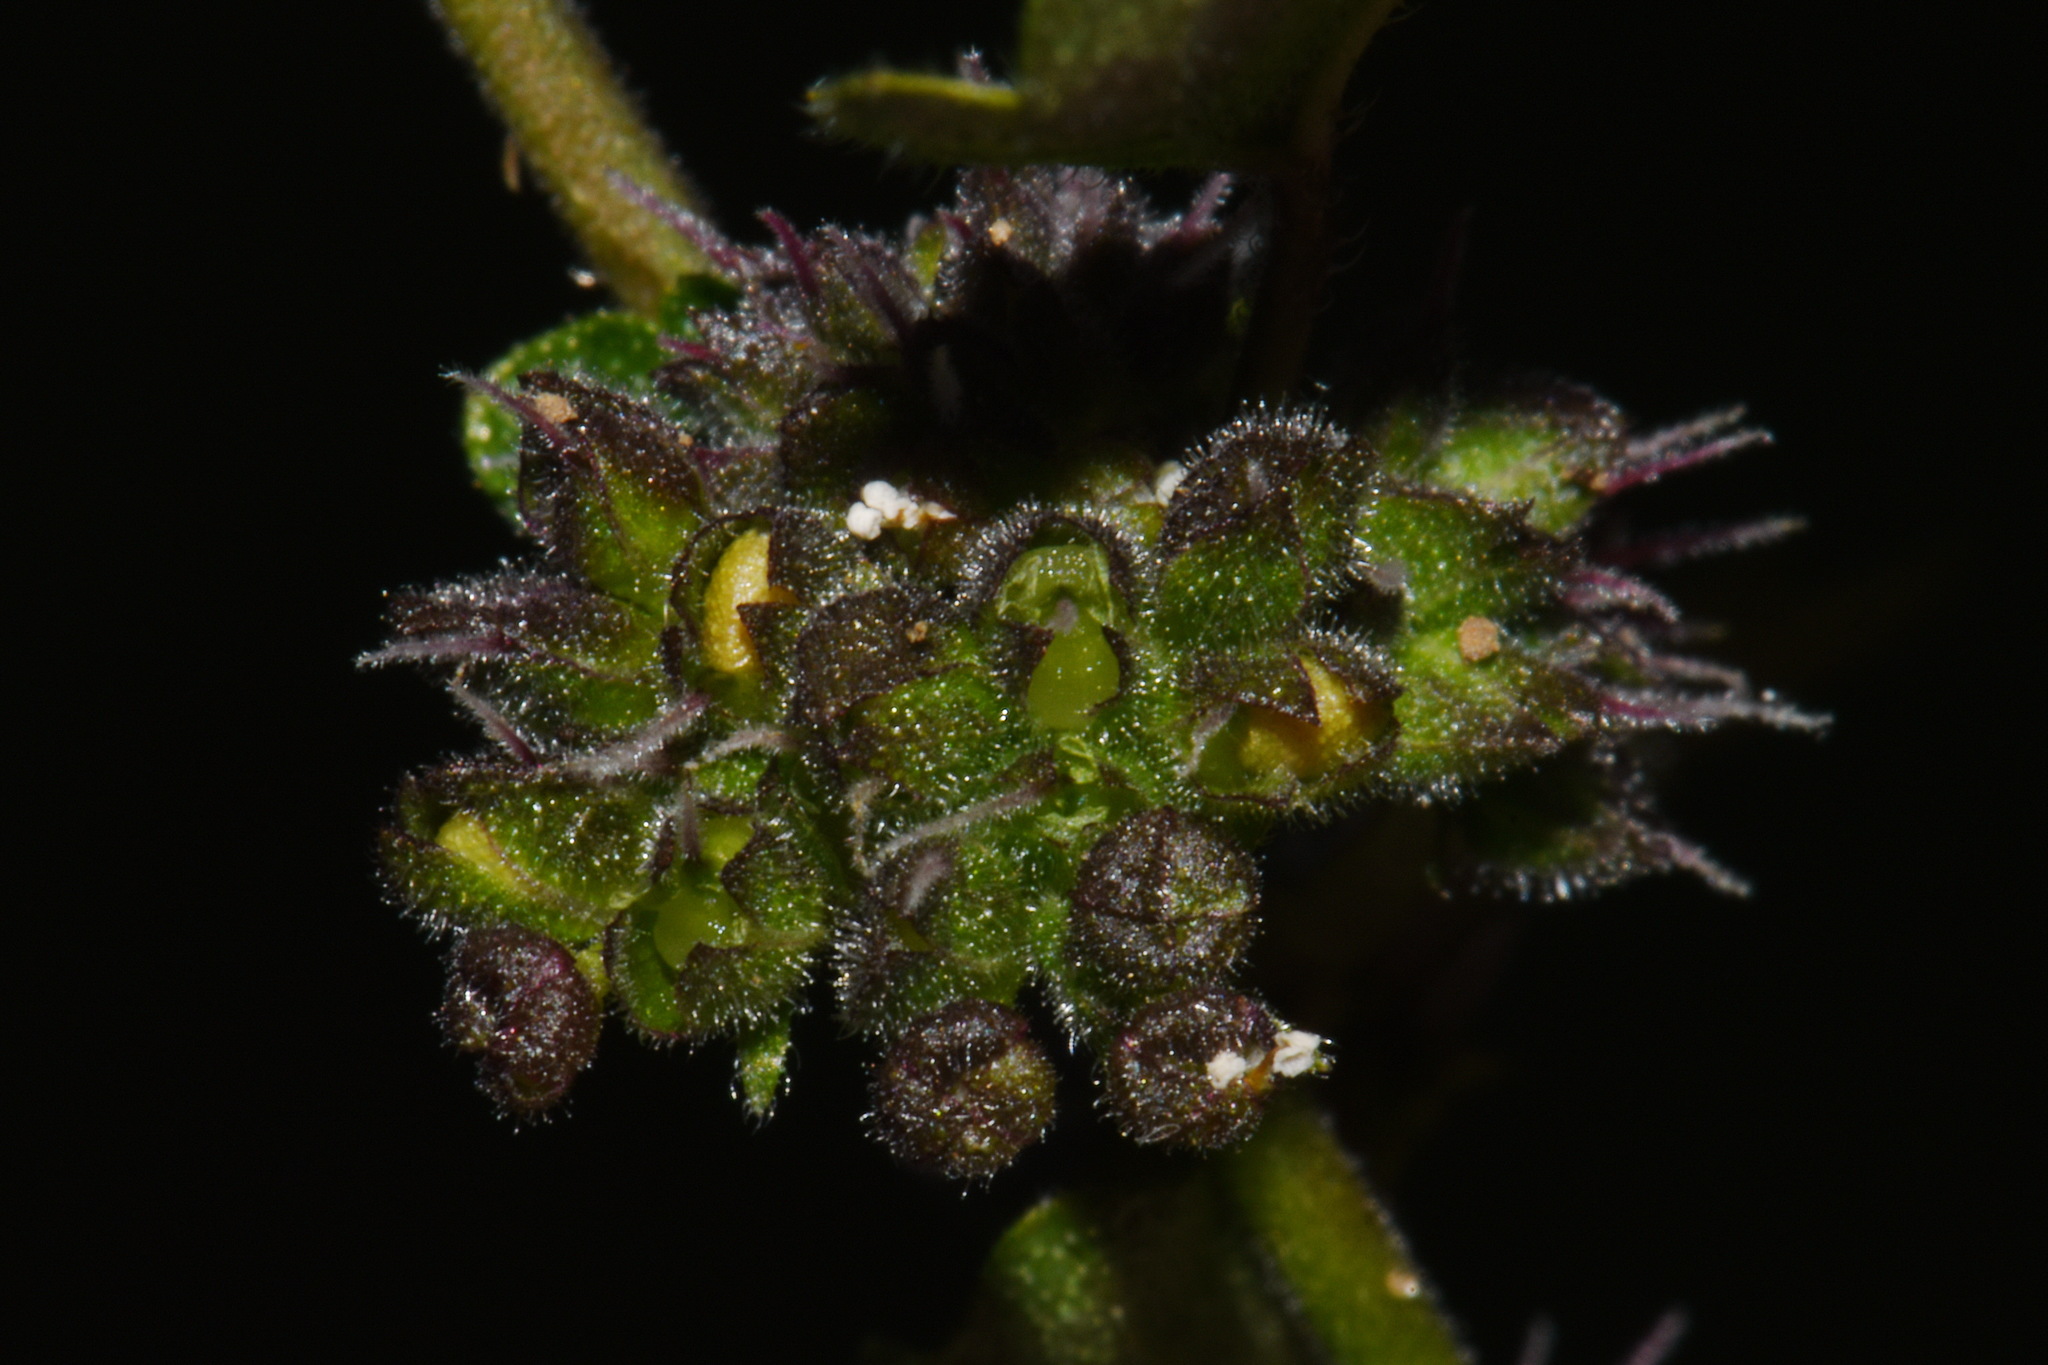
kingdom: Plantae
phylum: Tracheophyta
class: Magnoliopsida
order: Rosales
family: Moraceae
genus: Fatoua
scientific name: Fatoua villosa
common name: Hairy crabweed
